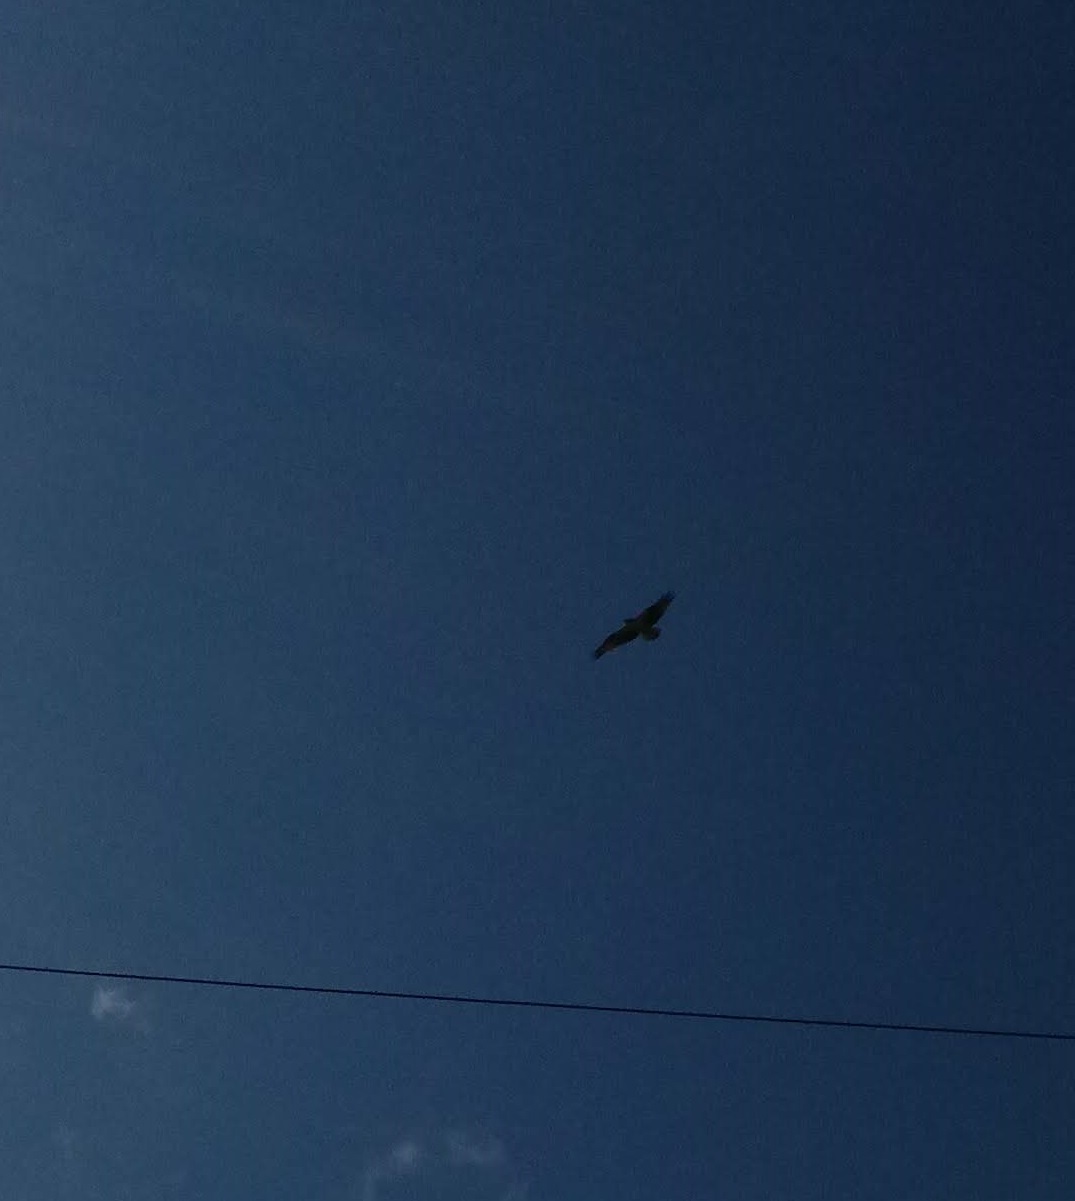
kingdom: Animalia
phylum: Chordata
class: Aves
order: Accipitriformes
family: Pandionidae
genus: Pandion
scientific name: Pandion haliaetus
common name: Osprey
